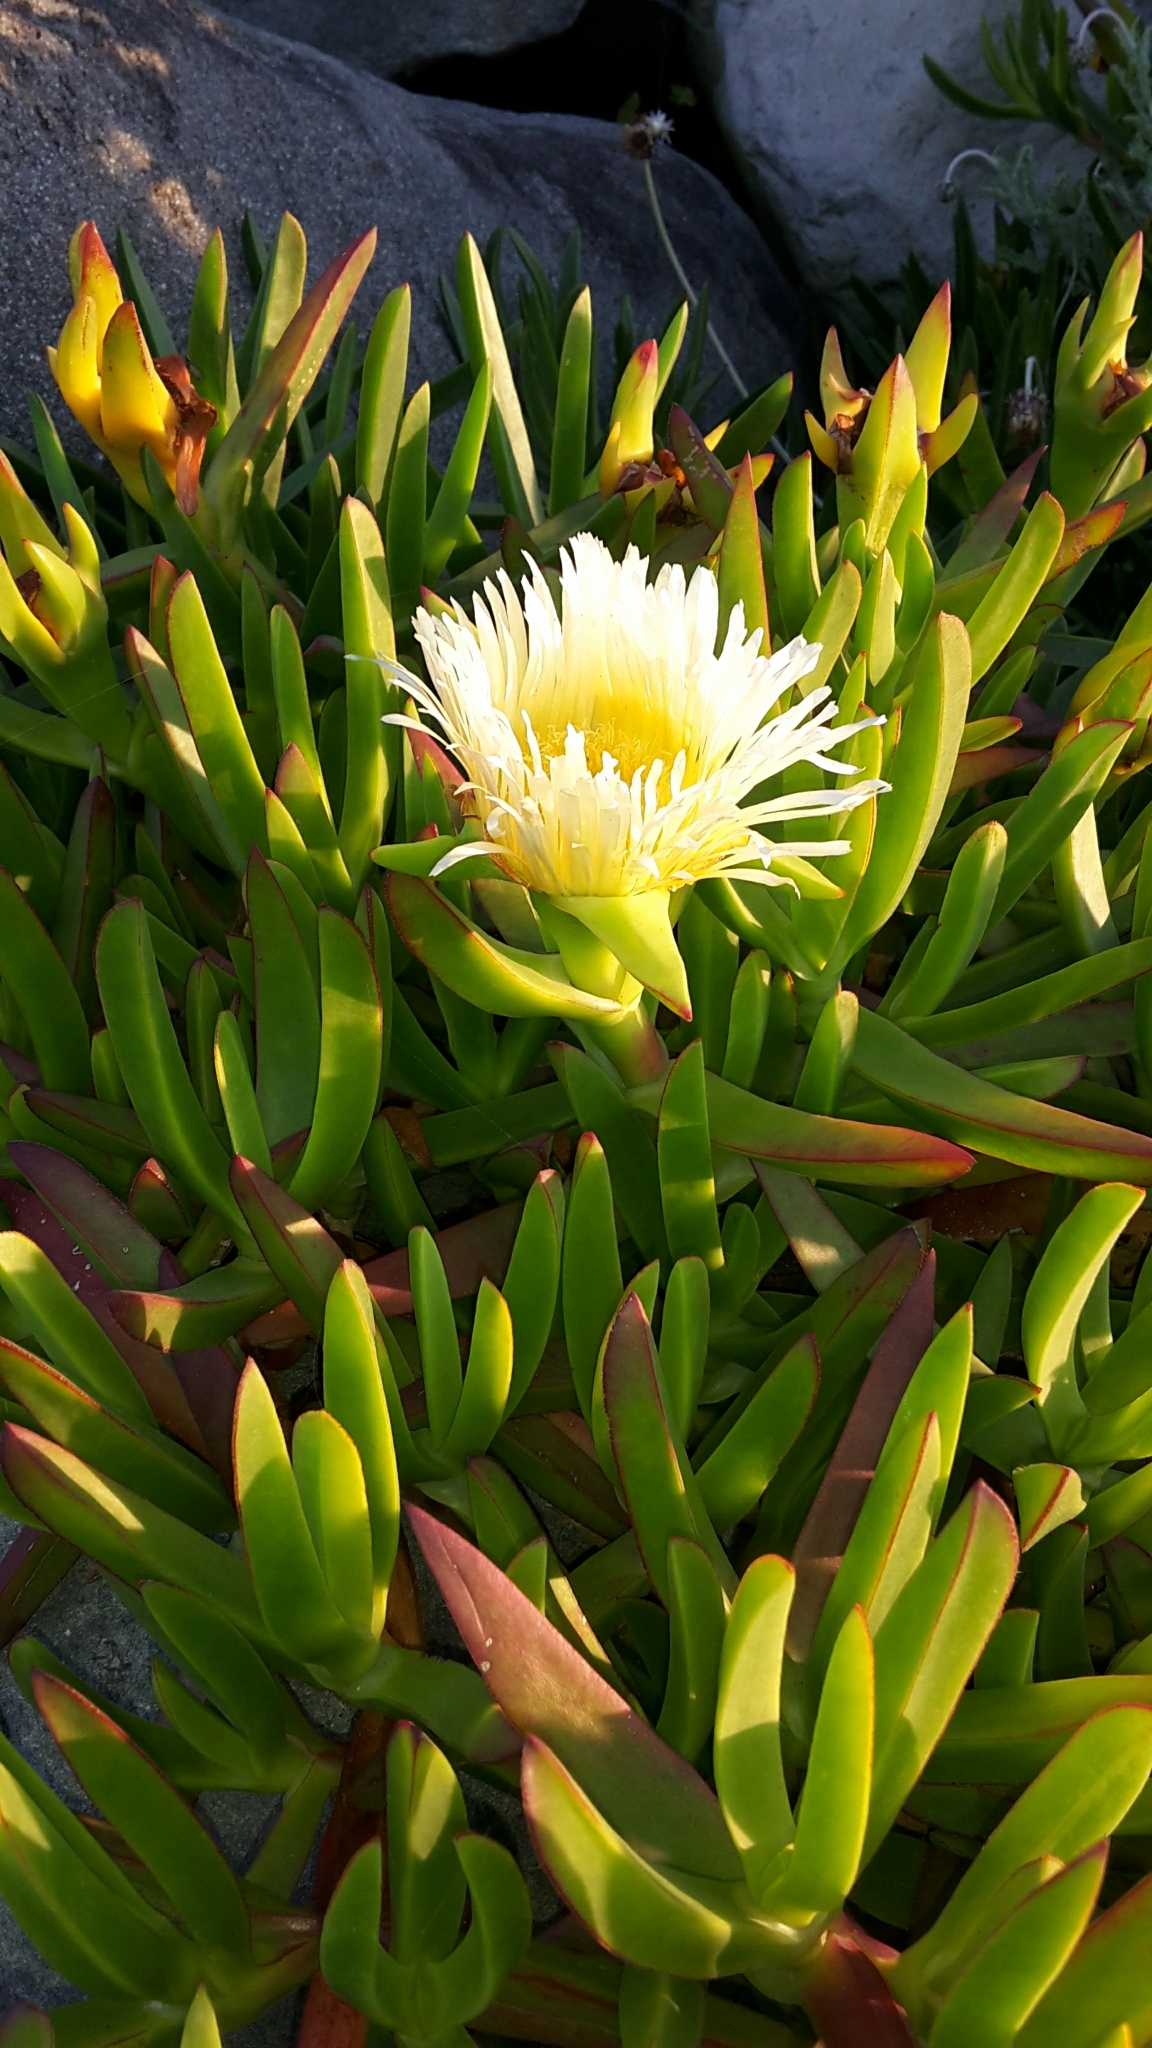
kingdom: Plantae
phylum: Tracheophyta
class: Magnoliopsida
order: Caryophyllales
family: Aizoaceae
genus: Carpobrotus
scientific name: Carpobrotus edulis
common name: Hottentot-fig
